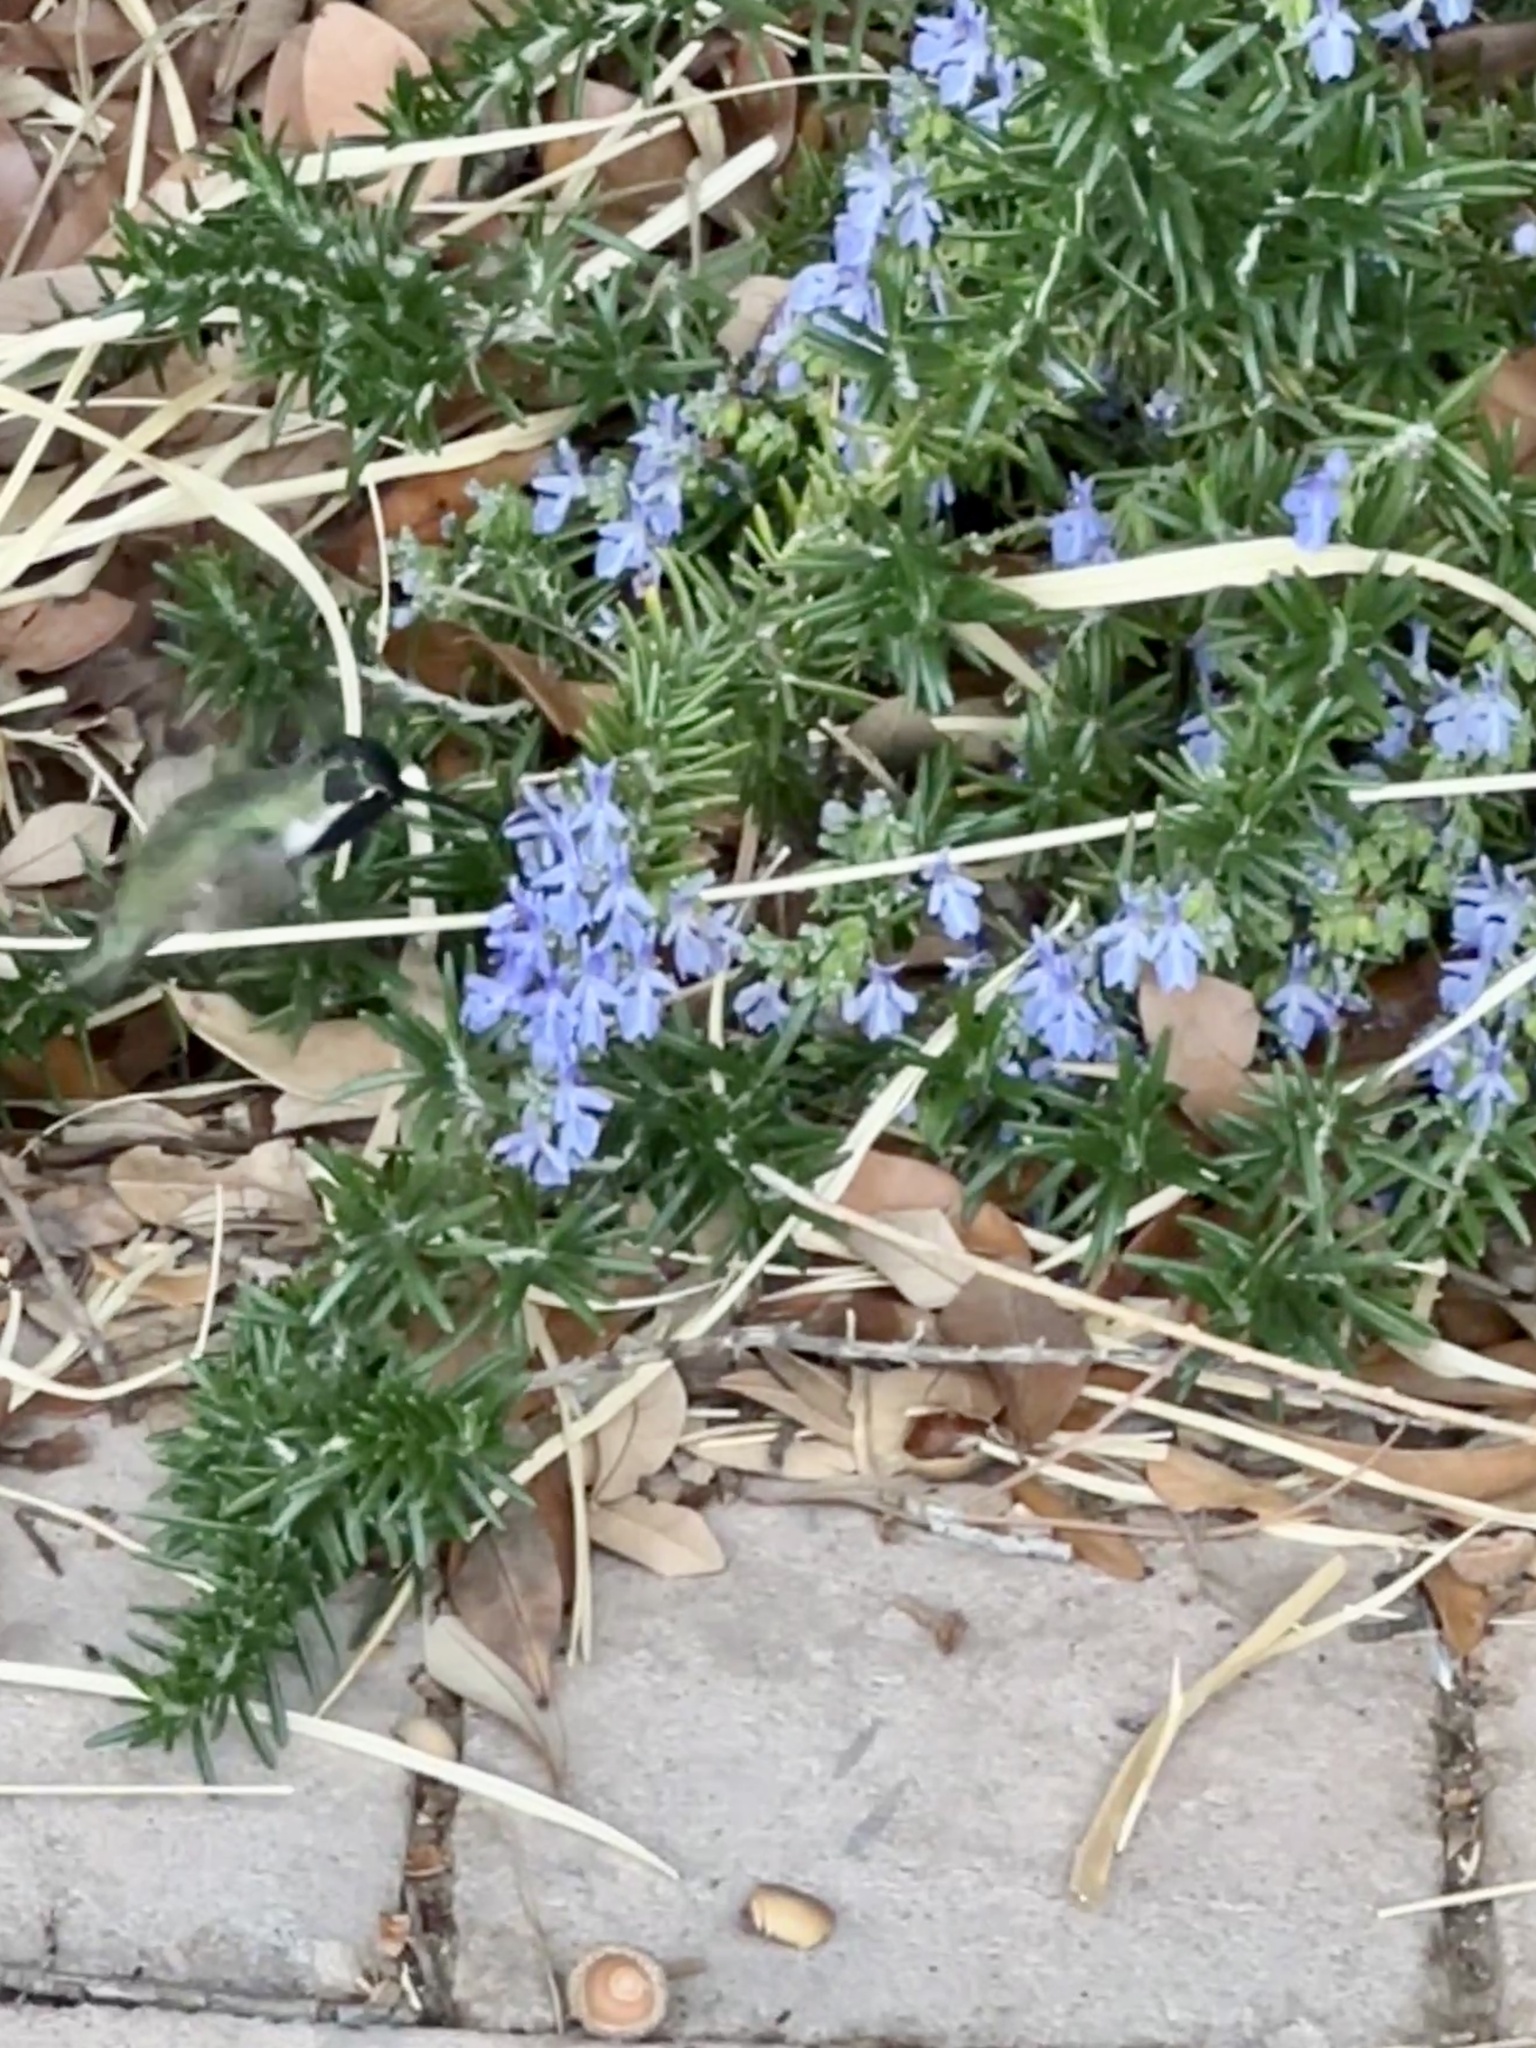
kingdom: Animalia
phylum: Chordata
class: Aves
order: Apodiformes
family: Trochilidae
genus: Calypte
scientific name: Calypte costae
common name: Costa's hummingbird
